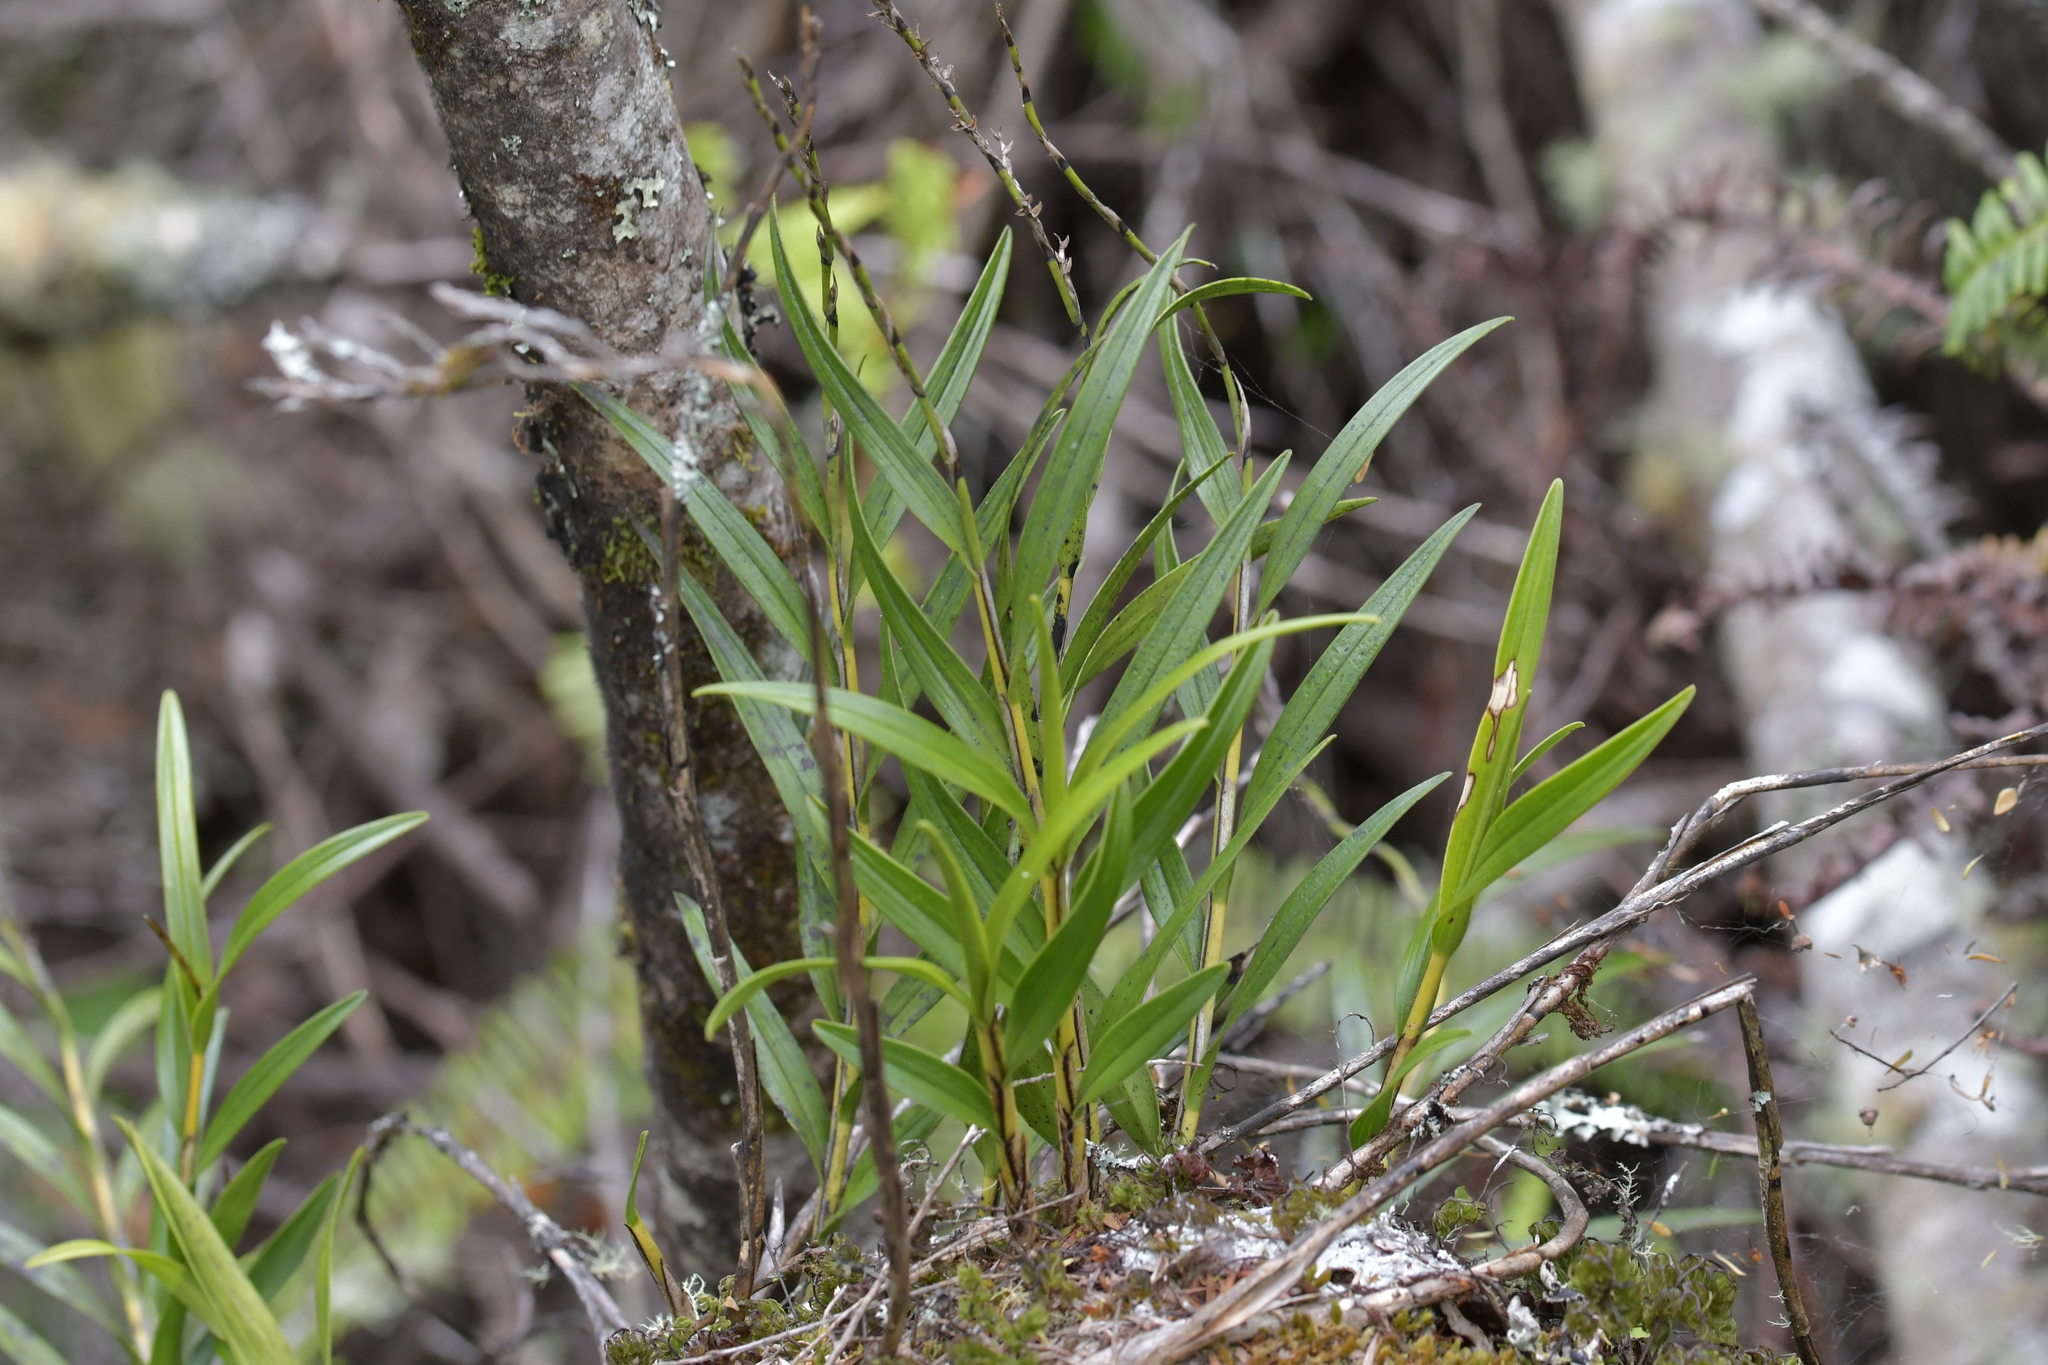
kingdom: Plantae
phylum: Tracheophyta
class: Liliopsida
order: Asparagales
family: Orchidaceae
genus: Earina
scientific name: Earina autumnalis
